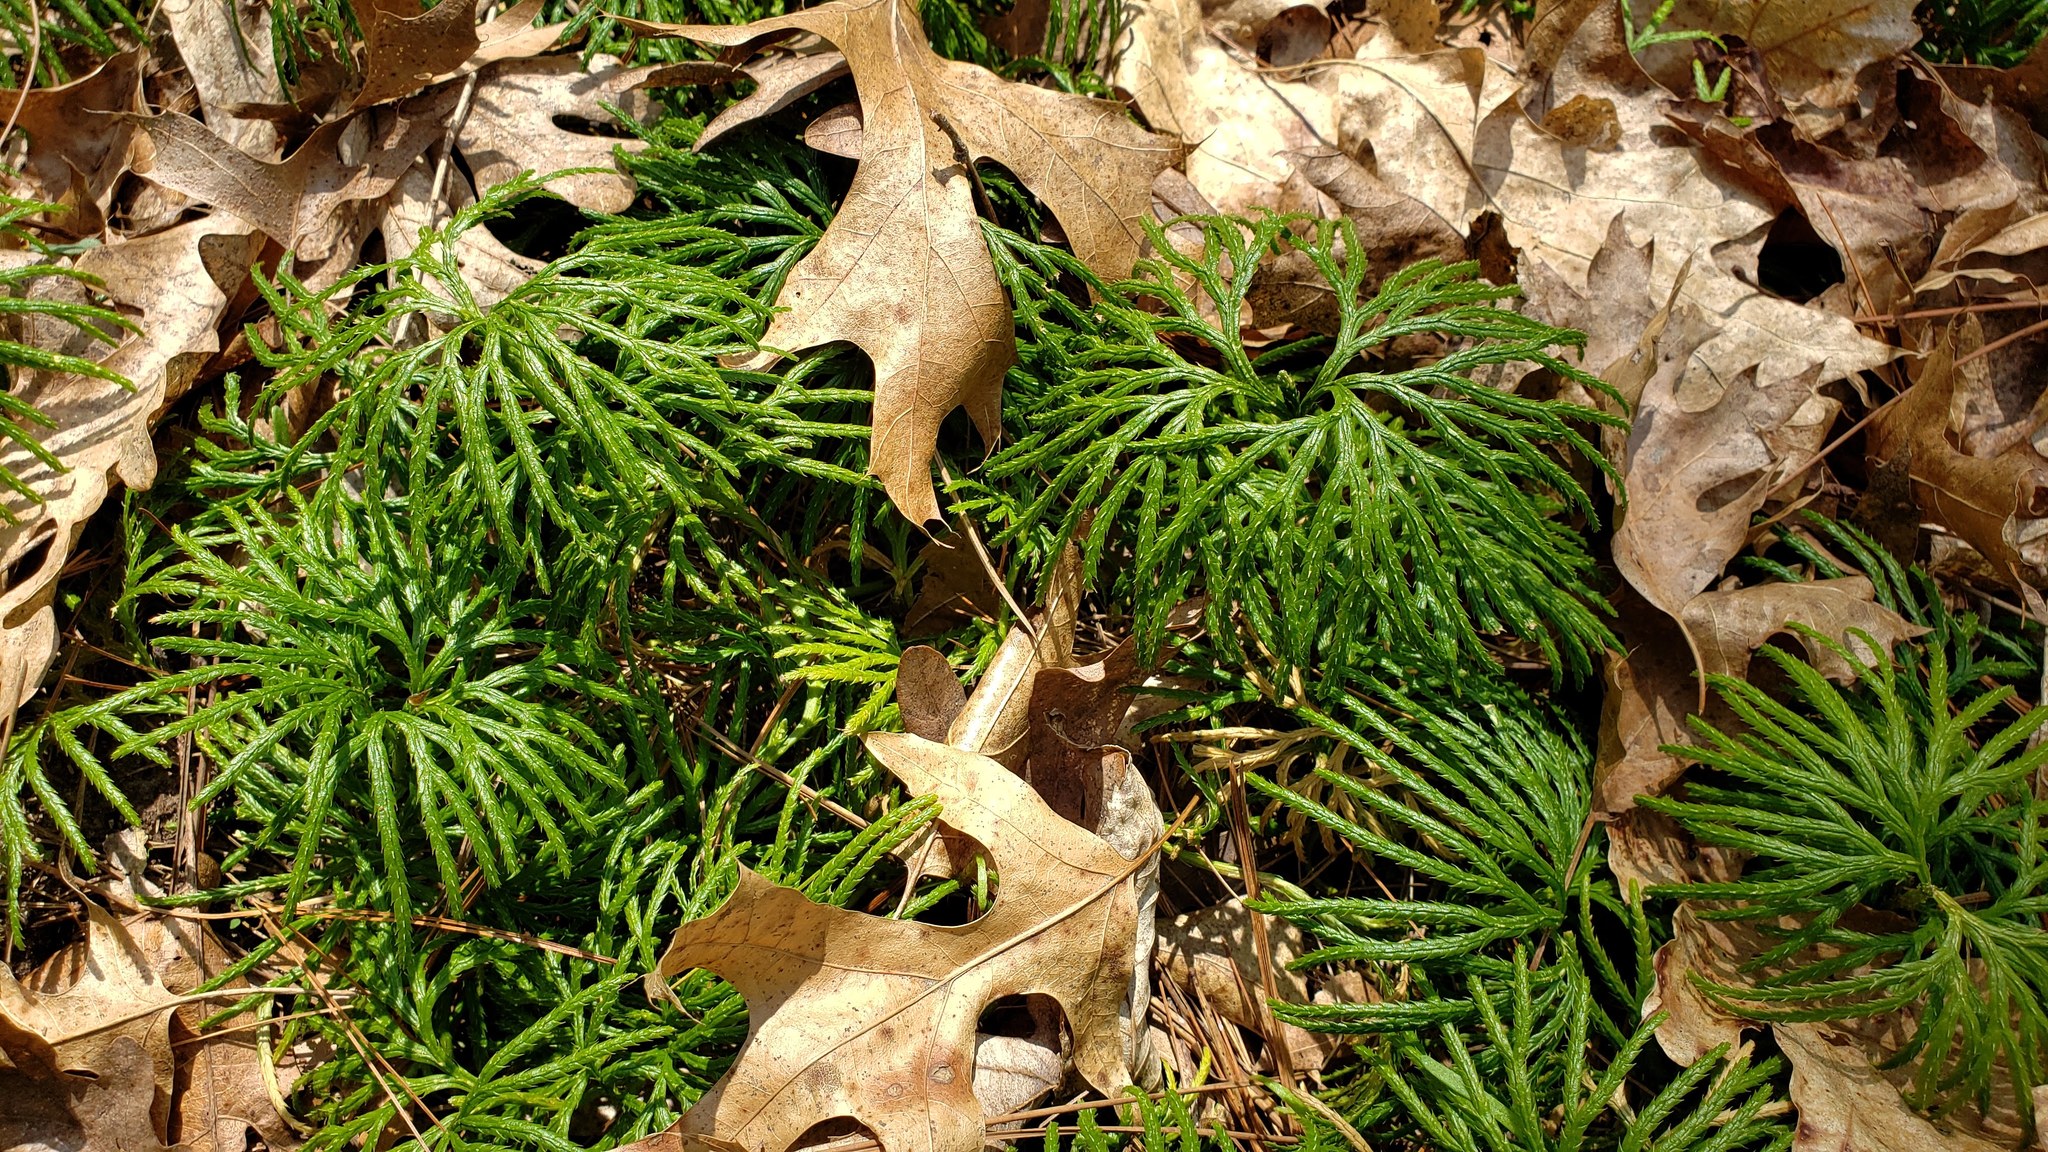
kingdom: Plantae
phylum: Tracheophyta
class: Lycopodiopsida
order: Lycopodiales
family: Lycopodiaceae
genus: Diphasiastrum
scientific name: Diphasiastrum digitatum
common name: Southern running-pine
